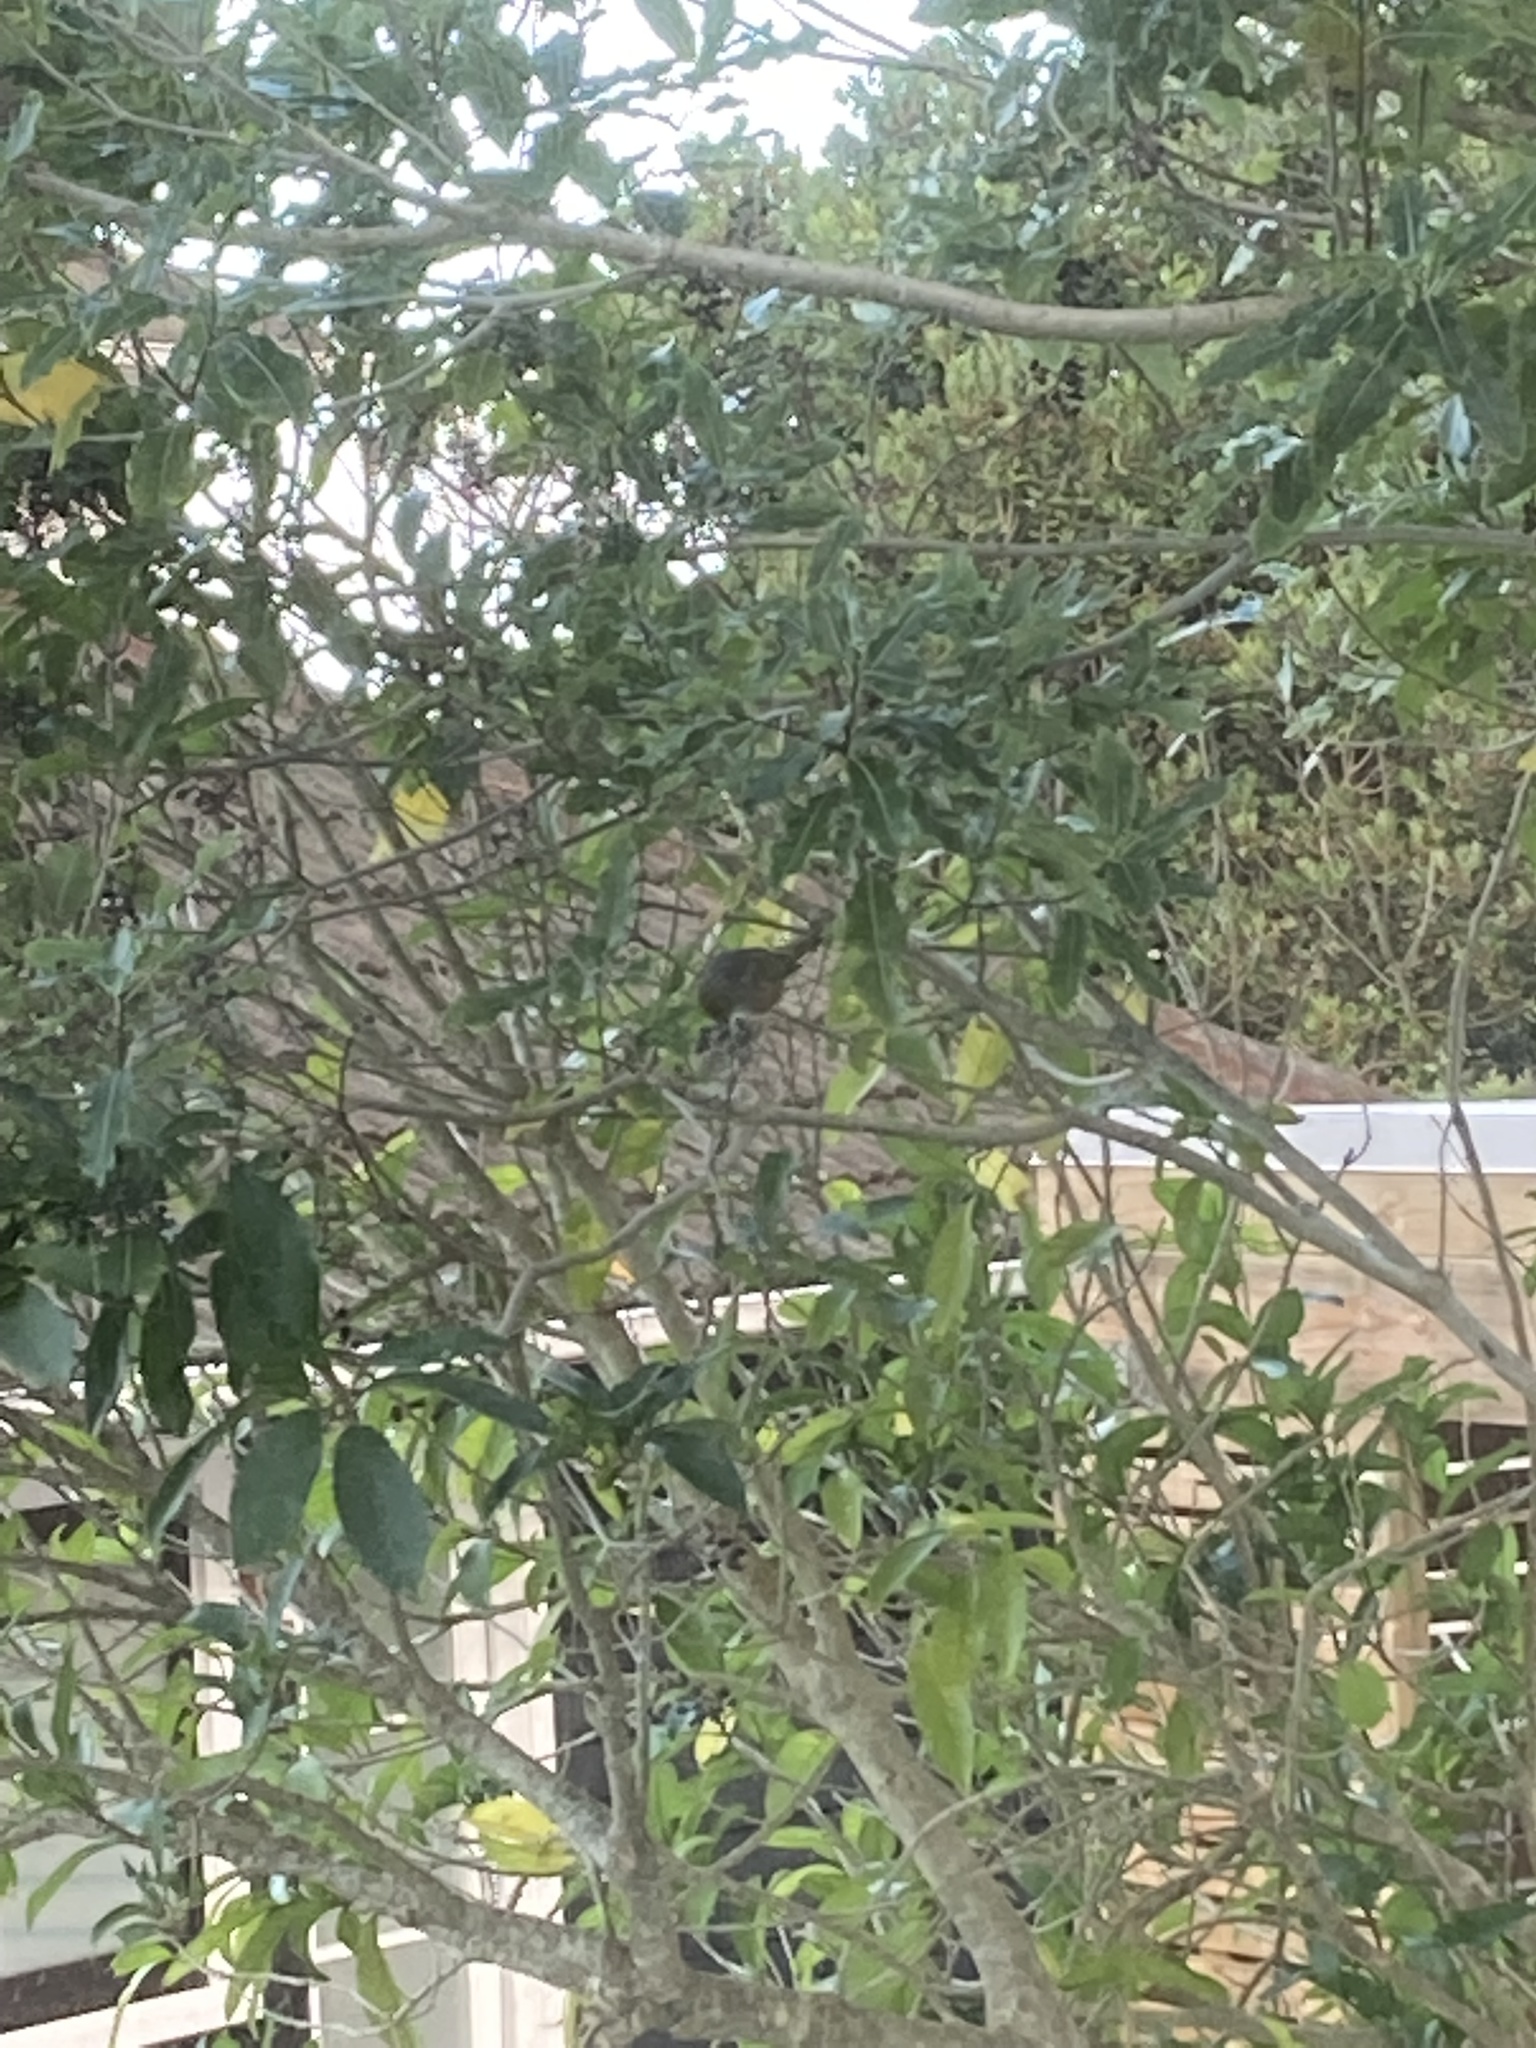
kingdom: Animalia
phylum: Chordata
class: Aves
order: Passeriformes
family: Zosteropidae
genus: Zosterops
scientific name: Zosterops lateralis
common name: Silvereye
